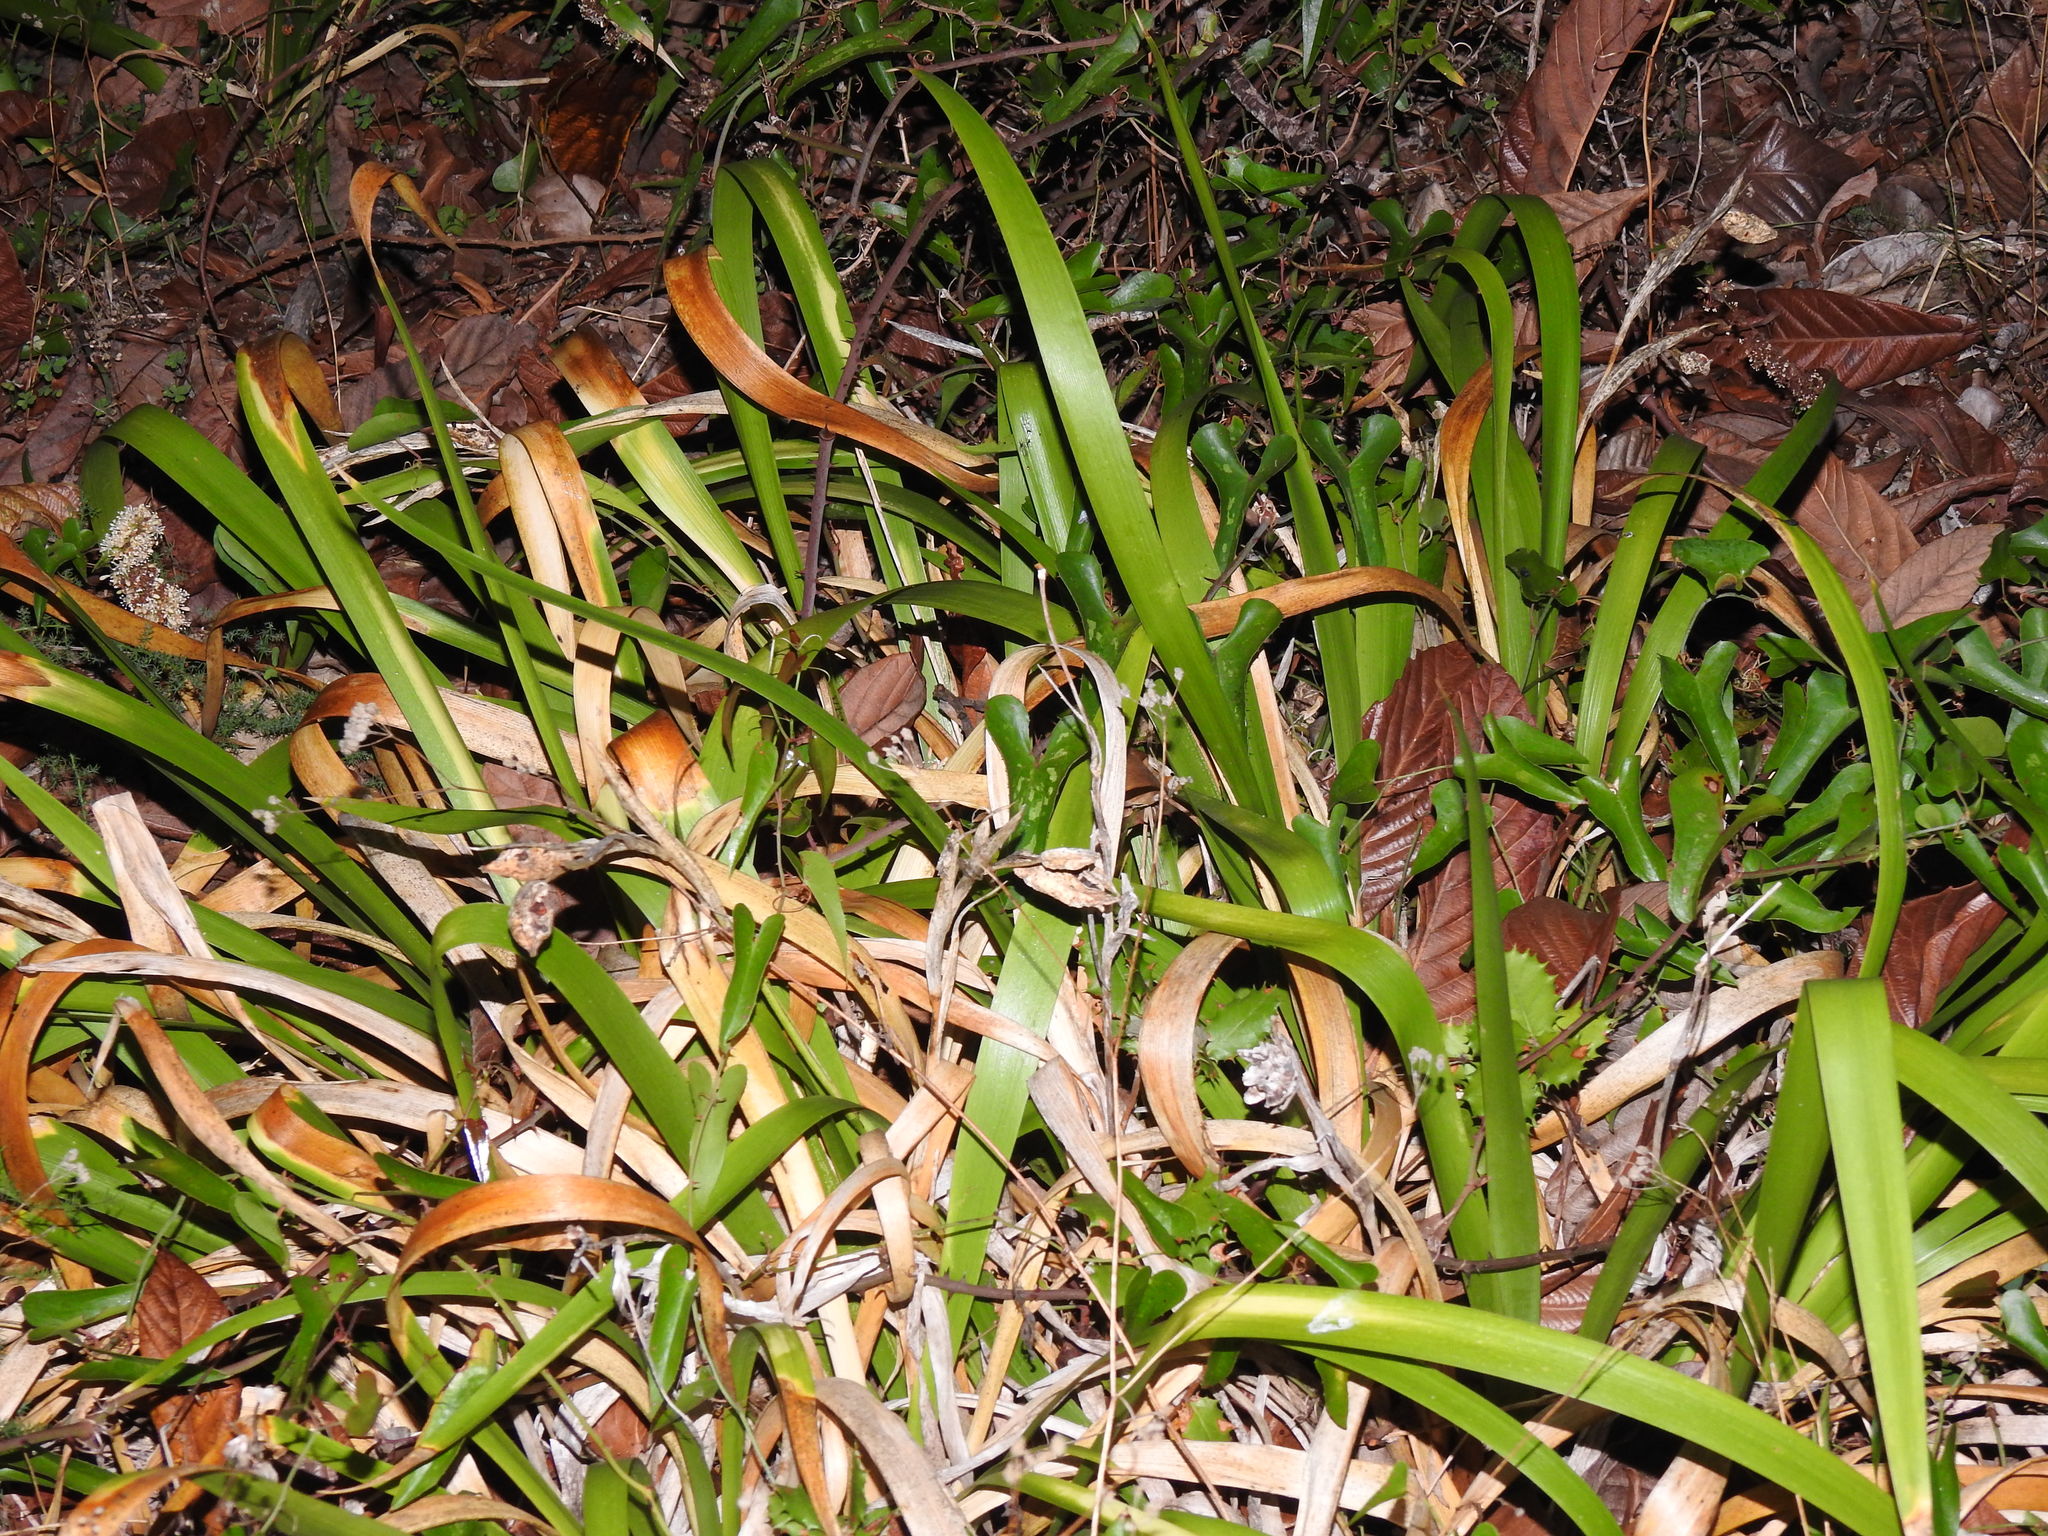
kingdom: Plantae
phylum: Tracheophyta
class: Liliopsida
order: Asparagales
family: Iridaceae
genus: Iris
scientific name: Iris foetidissima
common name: Stinking iris
